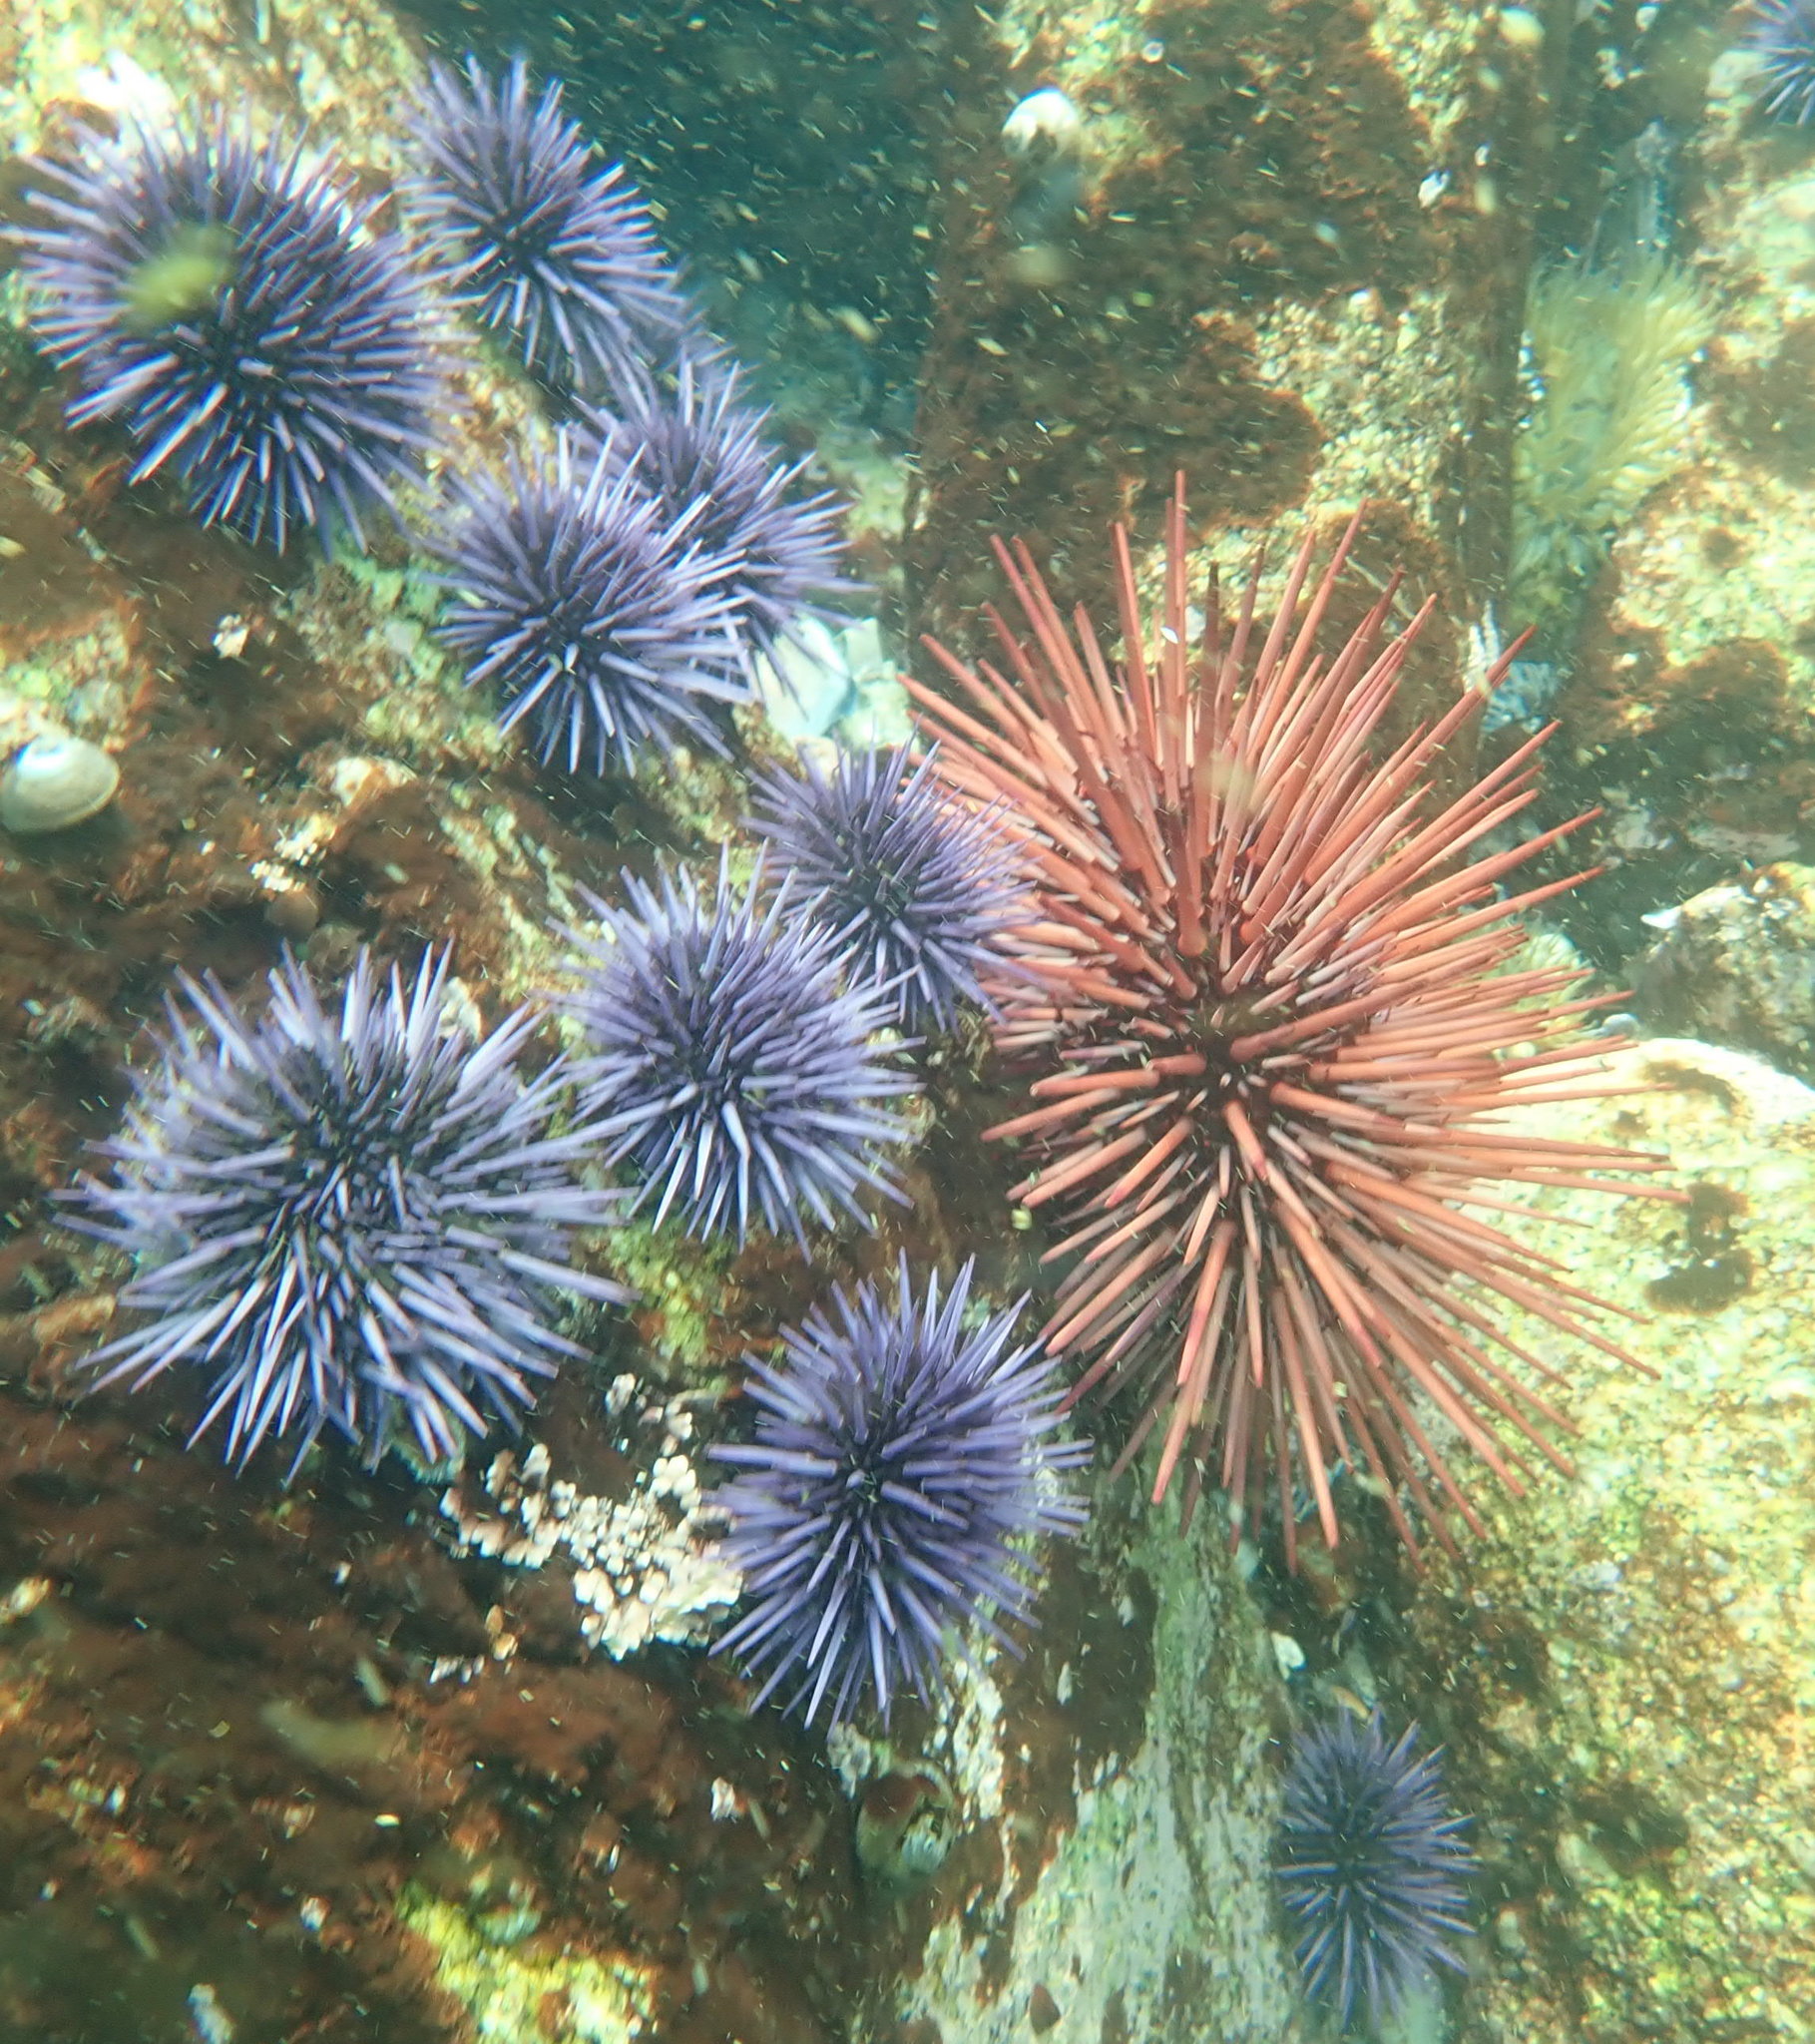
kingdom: Animalia
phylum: Echinodermata
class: Echinoidea
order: Camarodonta
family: Strongylocentrotidae
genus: Mesocentrotus
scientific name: Mesocentrotus franciscanus
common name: Red sea urchin
